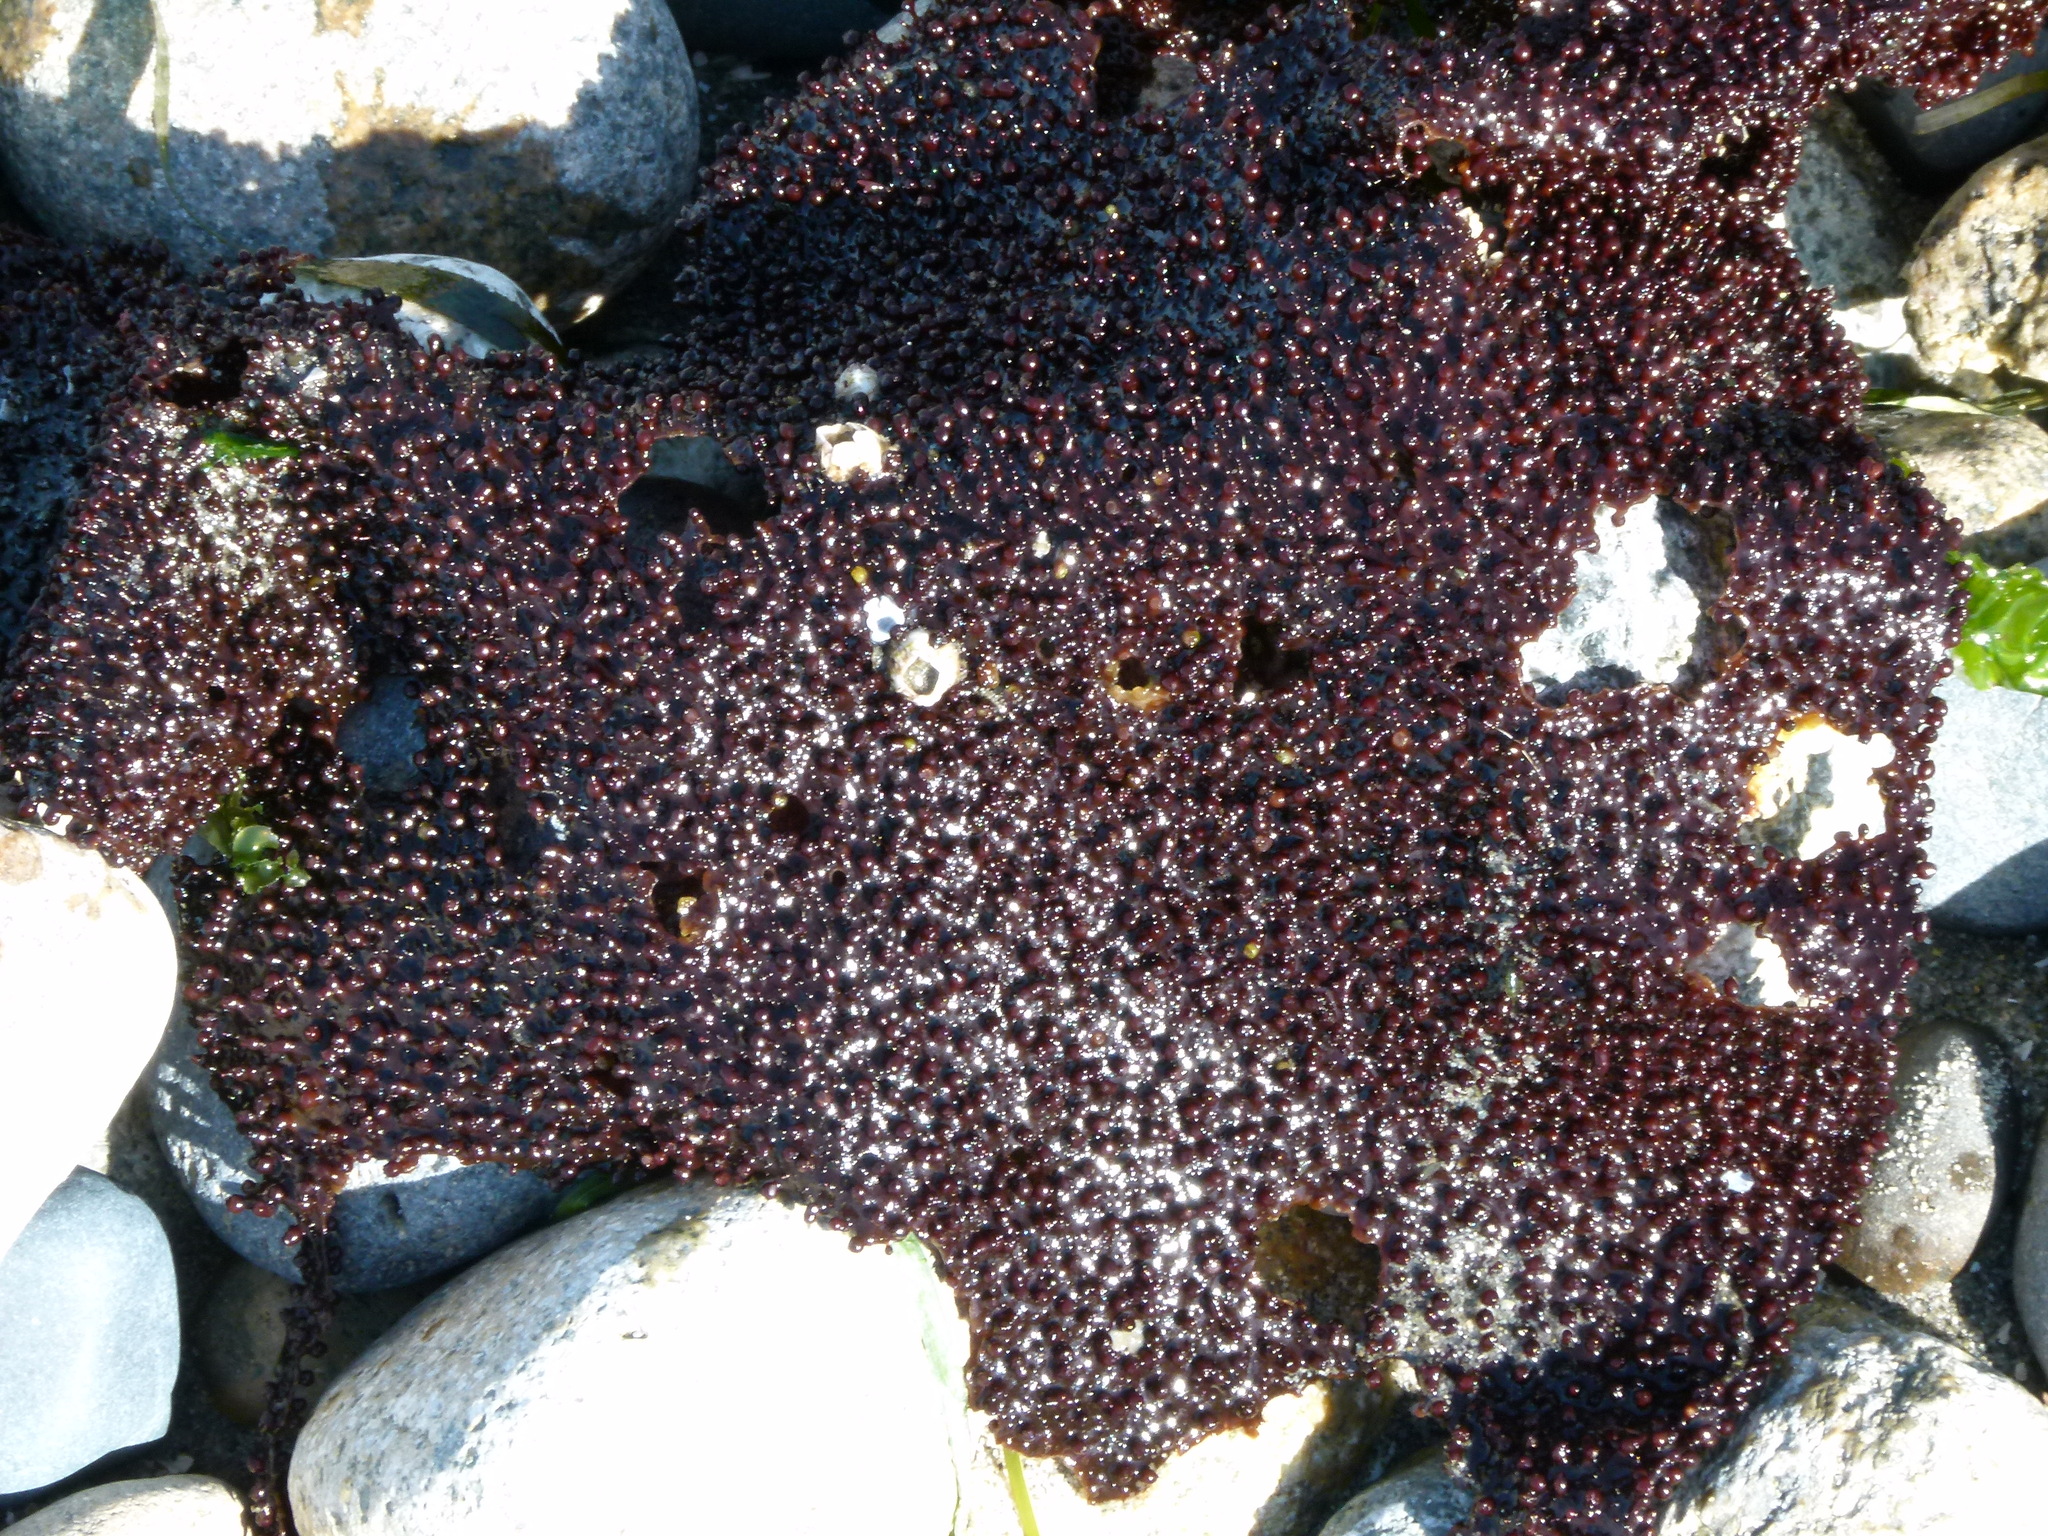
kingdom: Plantae
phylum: Rhodophyta
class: Florideophyceae
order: Gigartinales
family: Gigartinaceae
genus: Chondracanthus
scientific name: Chondracanthus exasperatus
